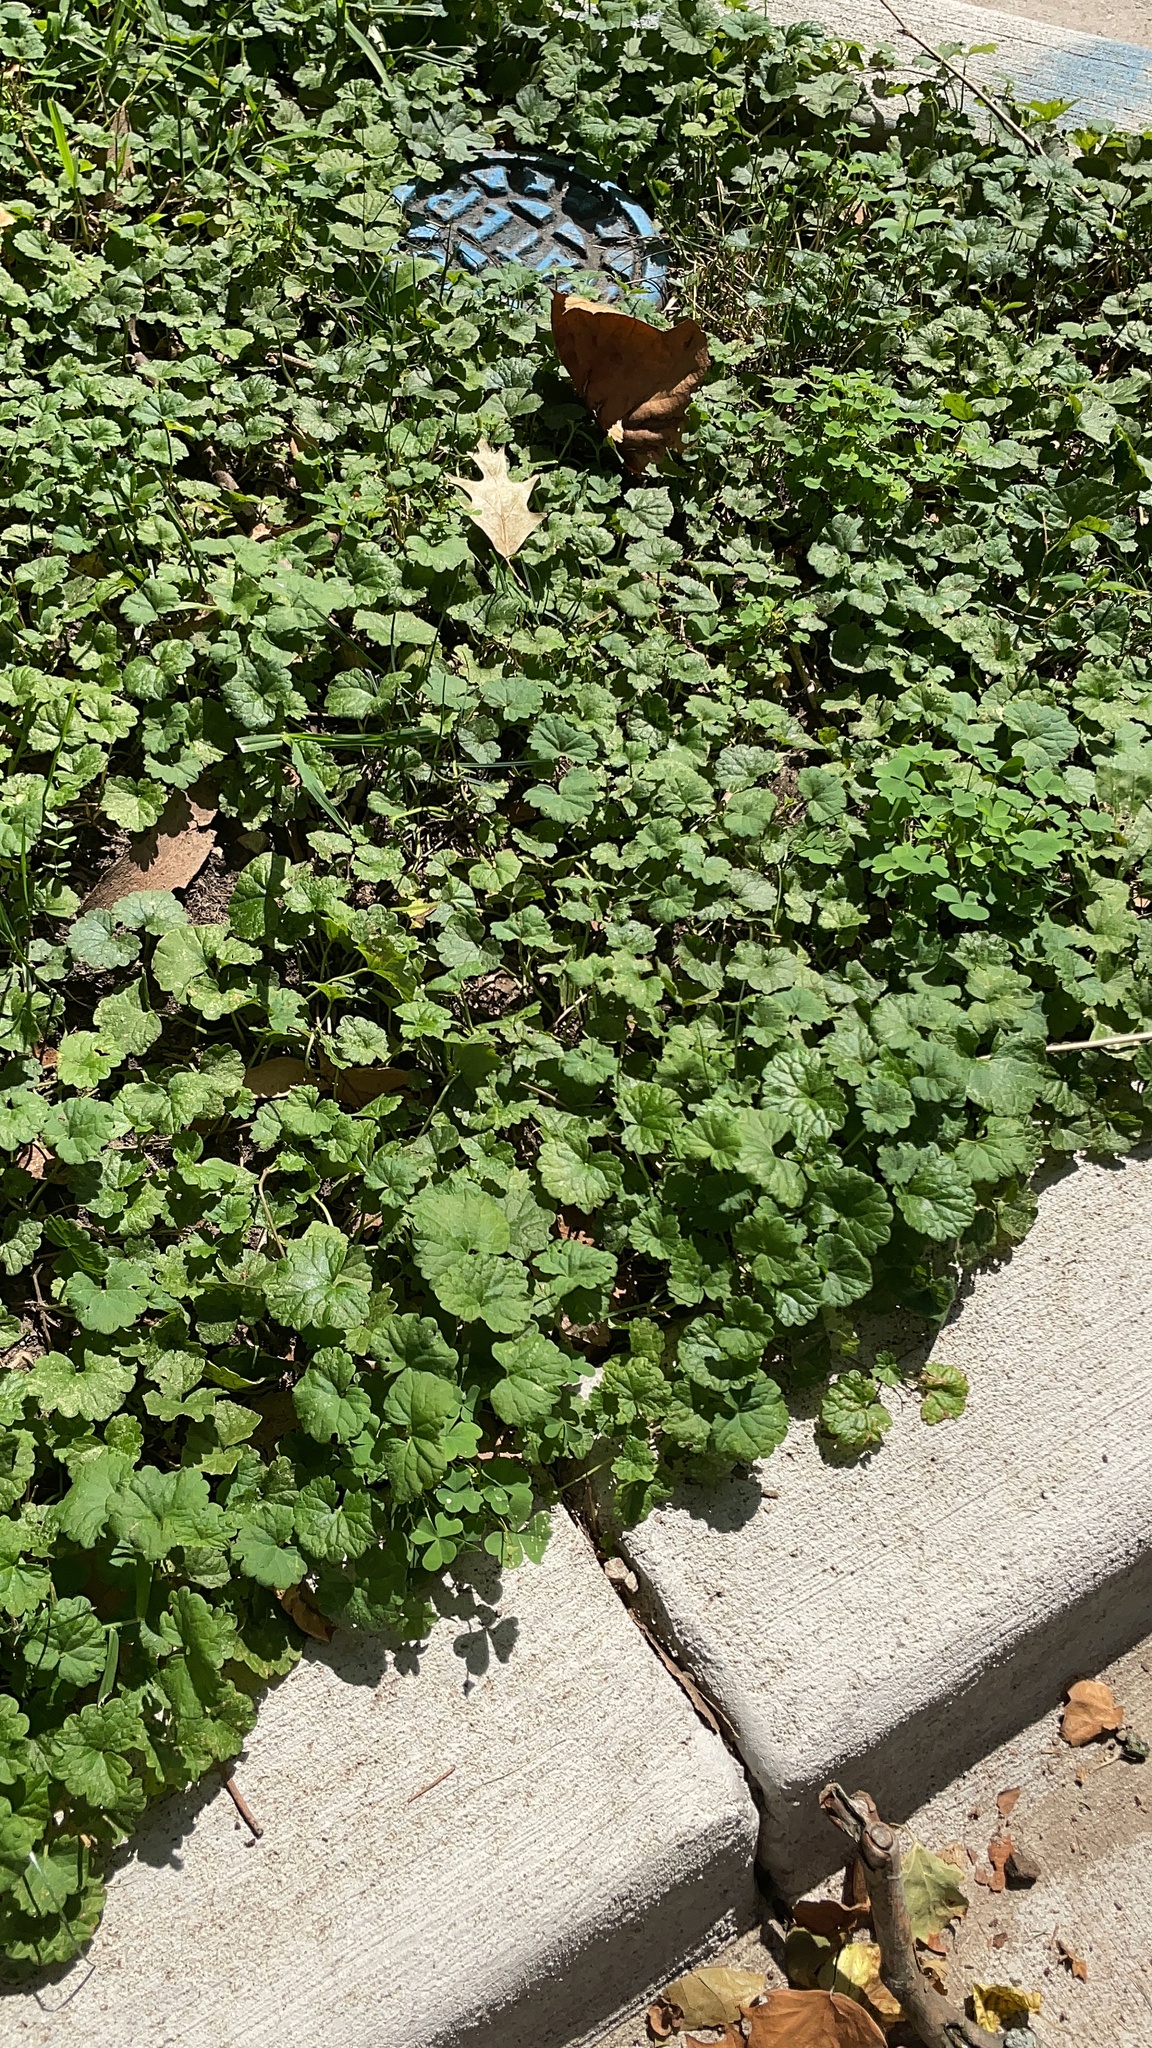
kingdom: Plantae
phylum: Tracheophyta
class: Magnoliopsida
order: Lamiales
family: Lamiaceae
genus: Glechoma
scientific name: Glechoma hederacea
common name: Ground ivy
